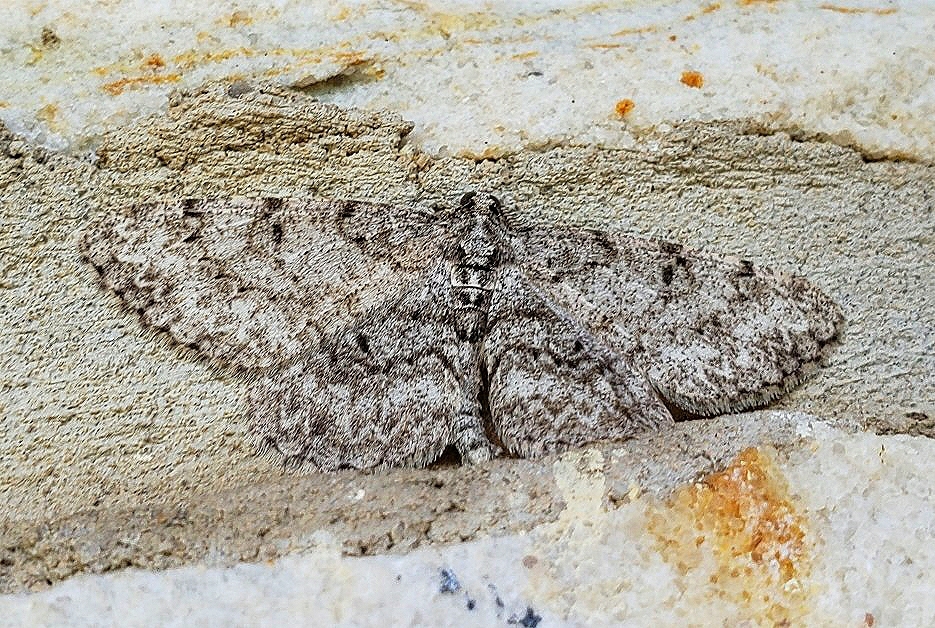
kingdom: Animalia
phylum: Arthropoda
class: Insecta
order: Lepidoptera
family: Geometridae
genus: Protoboarmia
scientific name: Protoboarmia porcelaria
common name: Porcelain gray
